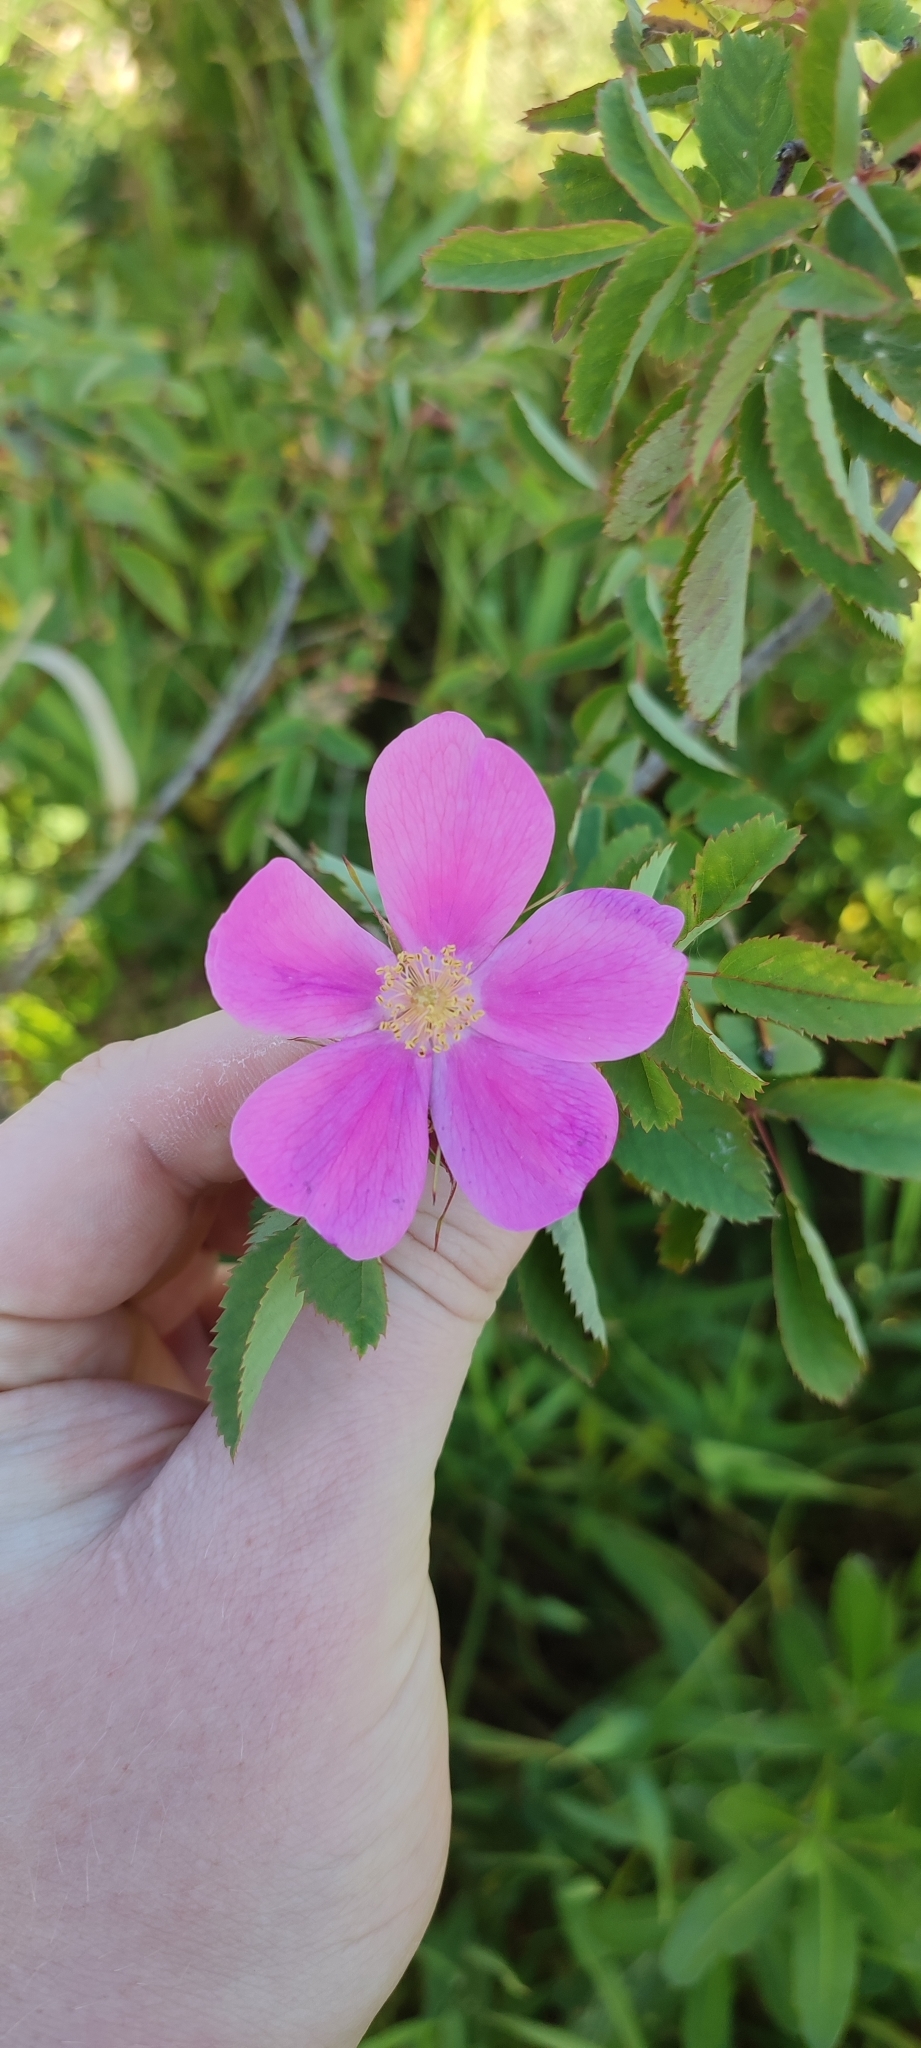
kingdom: Plantae
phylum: Tracheophyta
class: Magnoliopsida
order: Rosales
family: Rosaceae
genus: Rosa
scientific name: Rosa glabrifolia
